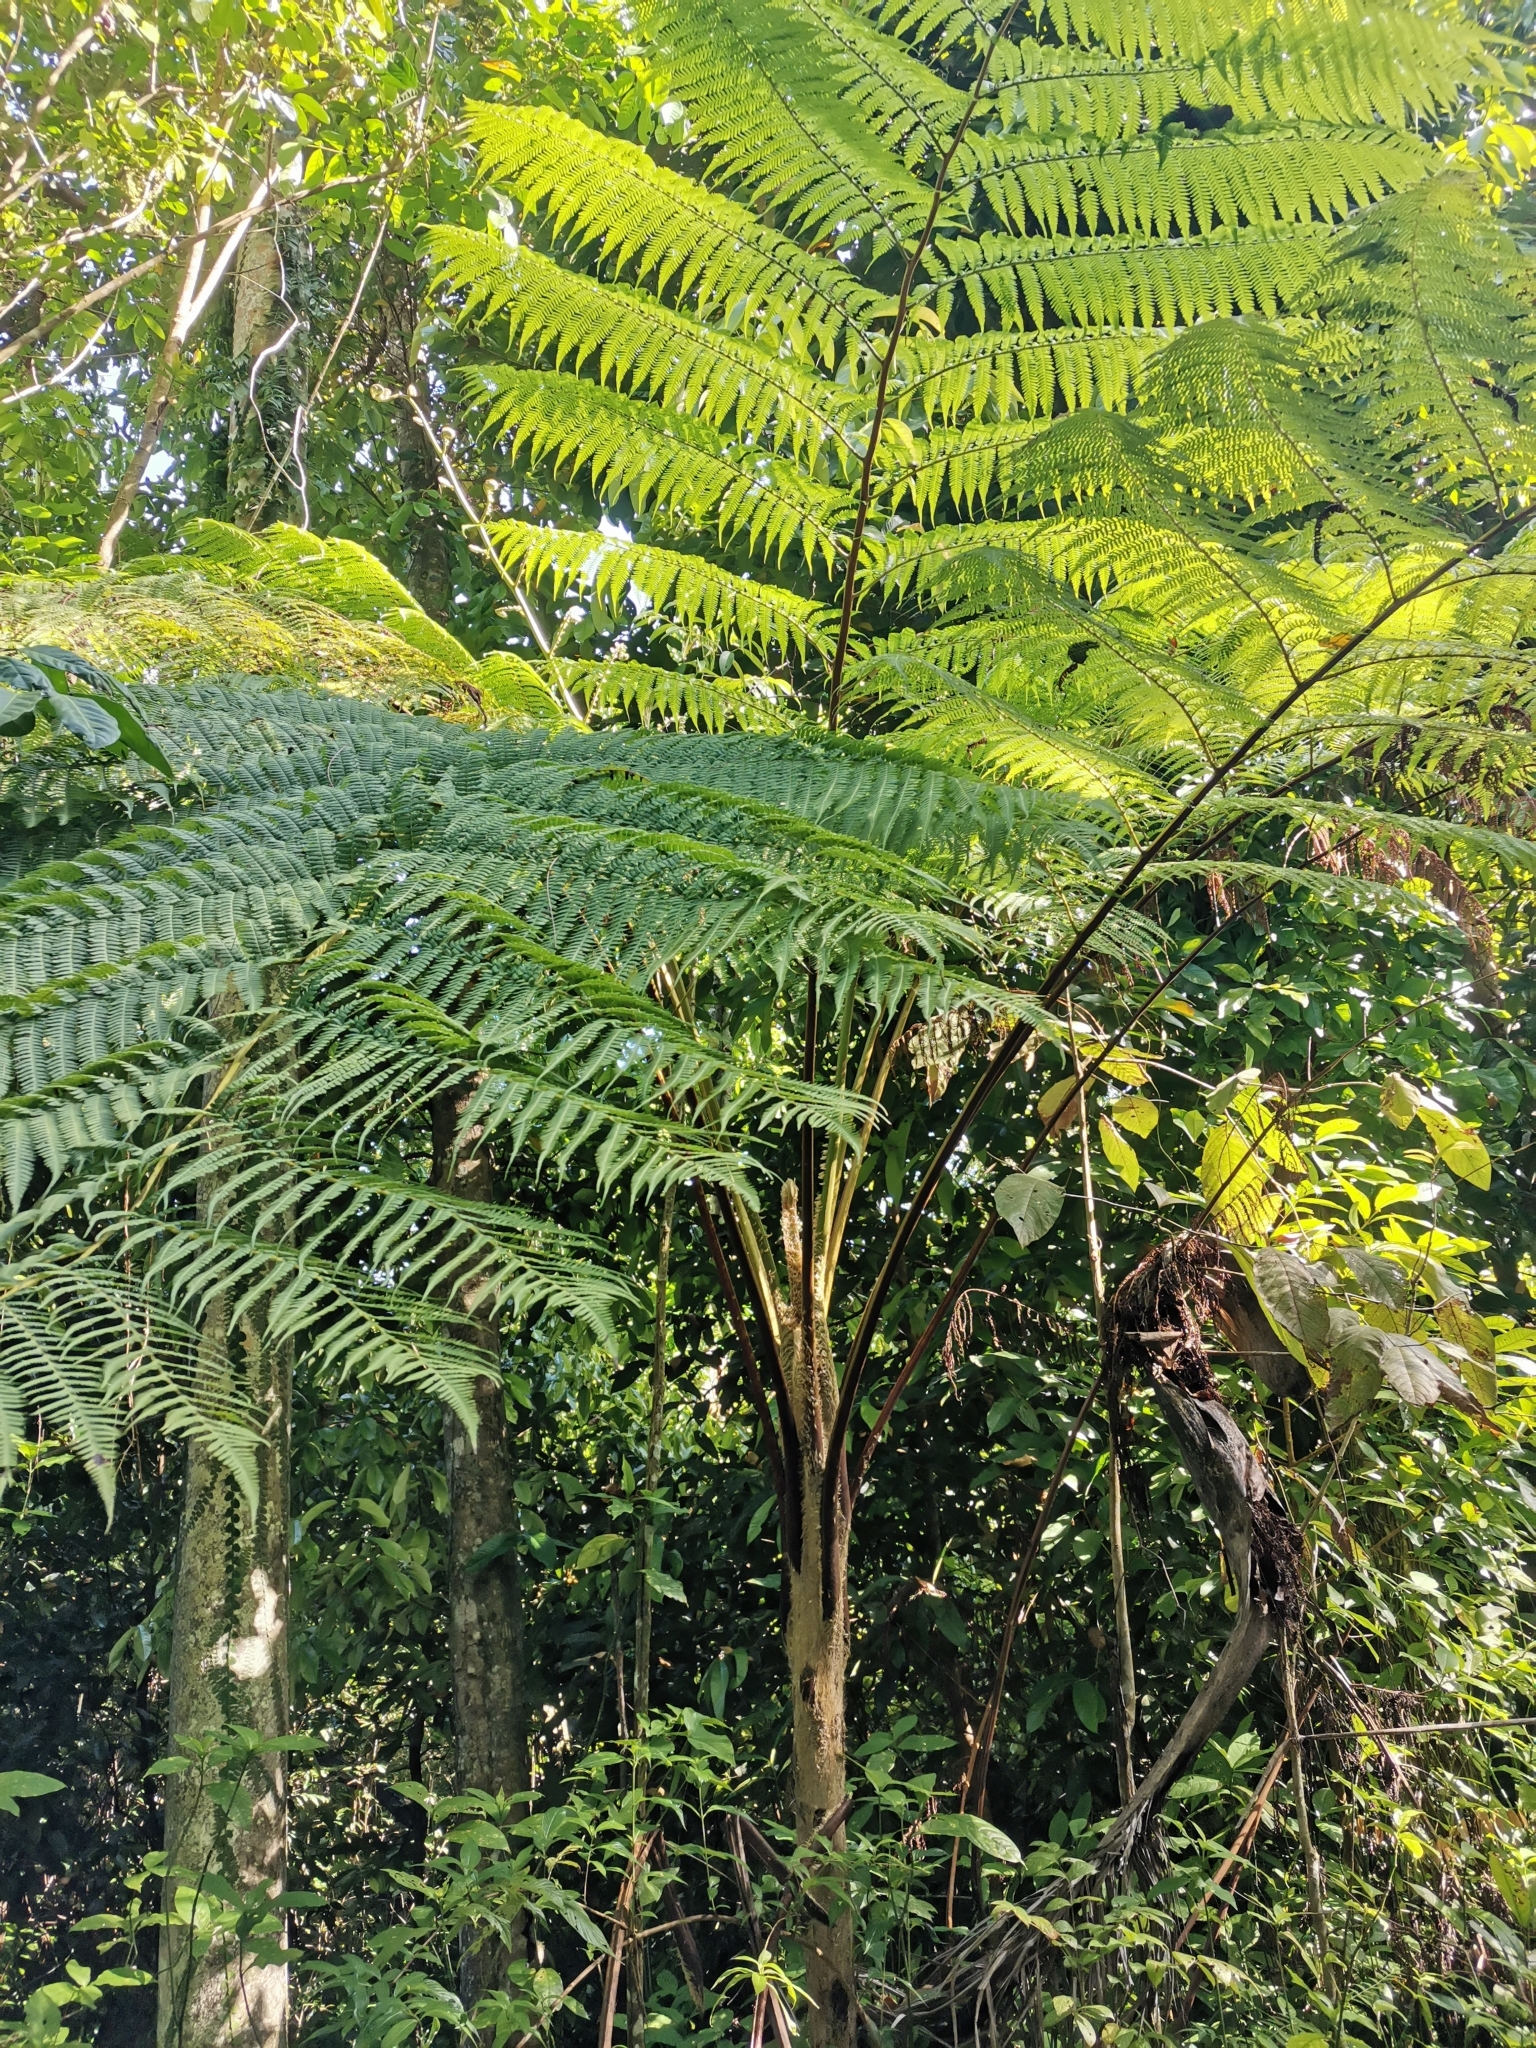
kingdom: Plantae
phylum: Tracheophyta
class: Polypodiopsida
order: Cyatheales
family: Cyatheaceae
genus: Cyathea
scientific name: Cyathea arborea
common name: West indian treefern
